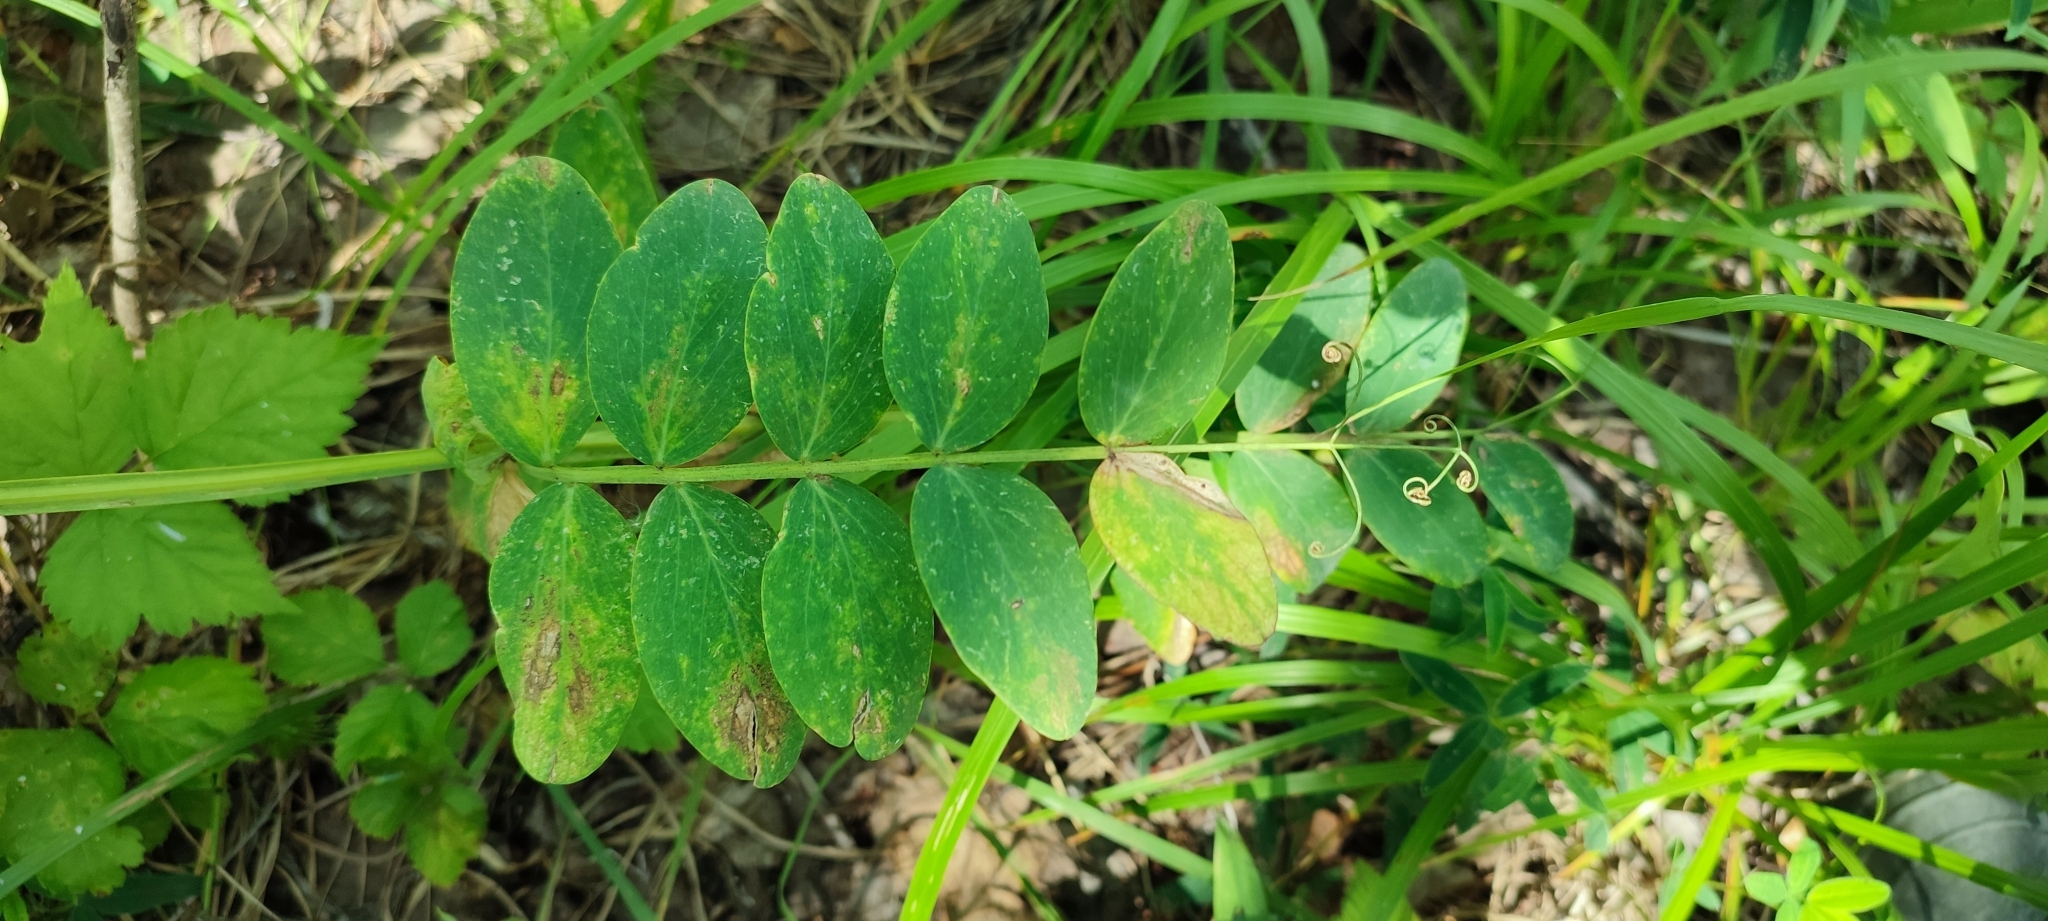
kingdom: Plantae
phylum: Tracheophyta
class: Magnoliopsida
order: Fabales
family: Fabaceae
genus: Lathyrus
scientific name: Lathyrus pisiformis
